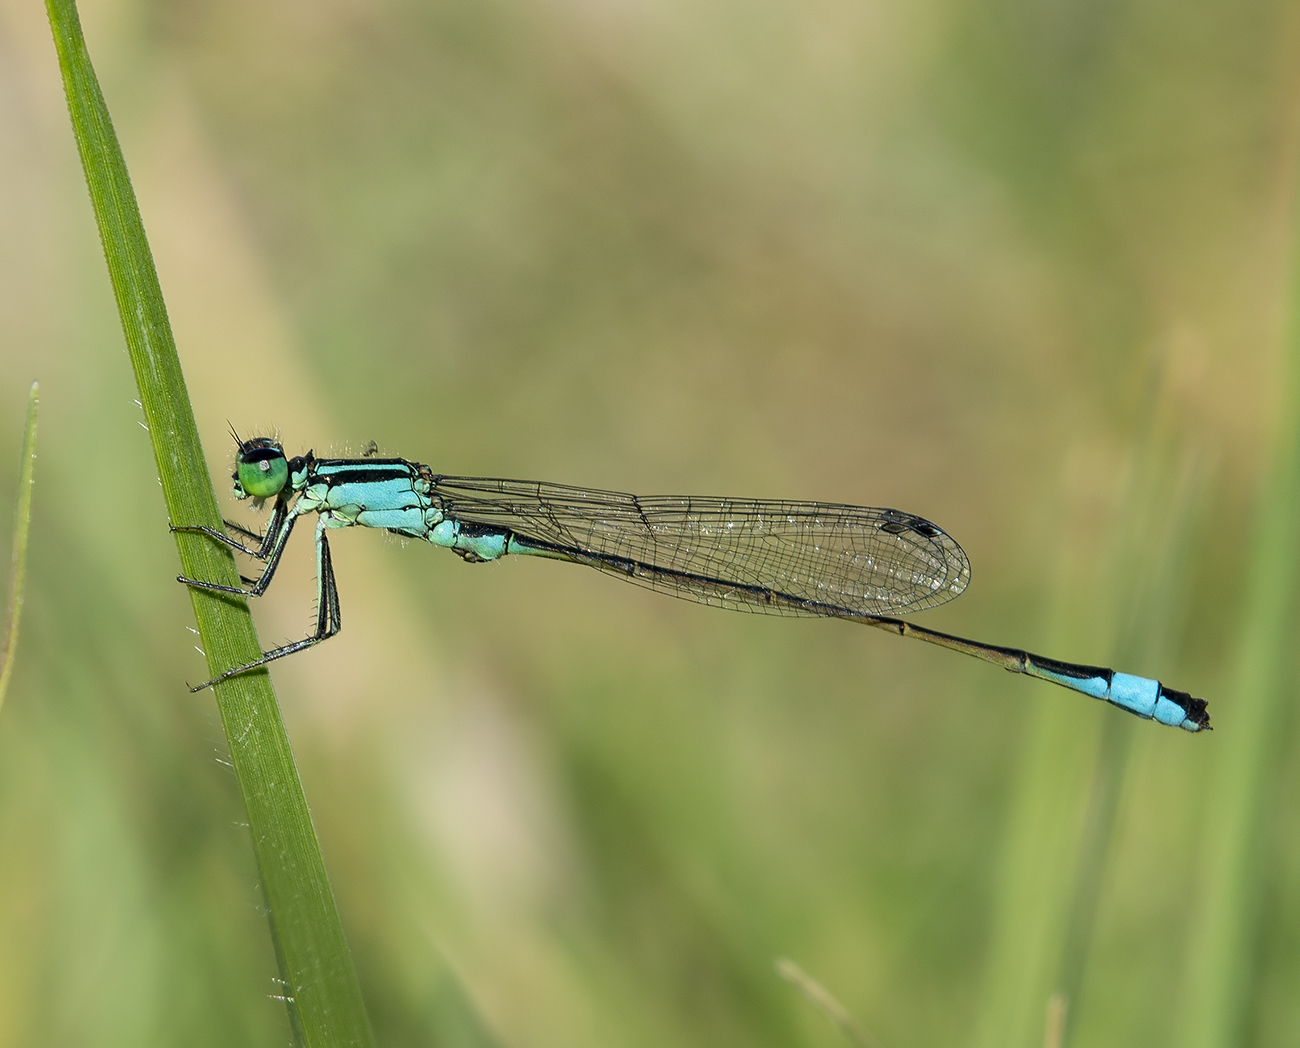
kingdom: Animalia
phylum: Arthropoda
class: Insecta
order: Odonata
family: Coenagrionidae
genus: Ischnura
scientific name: Ischnura elegans
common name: Blue-tailed damselfly
